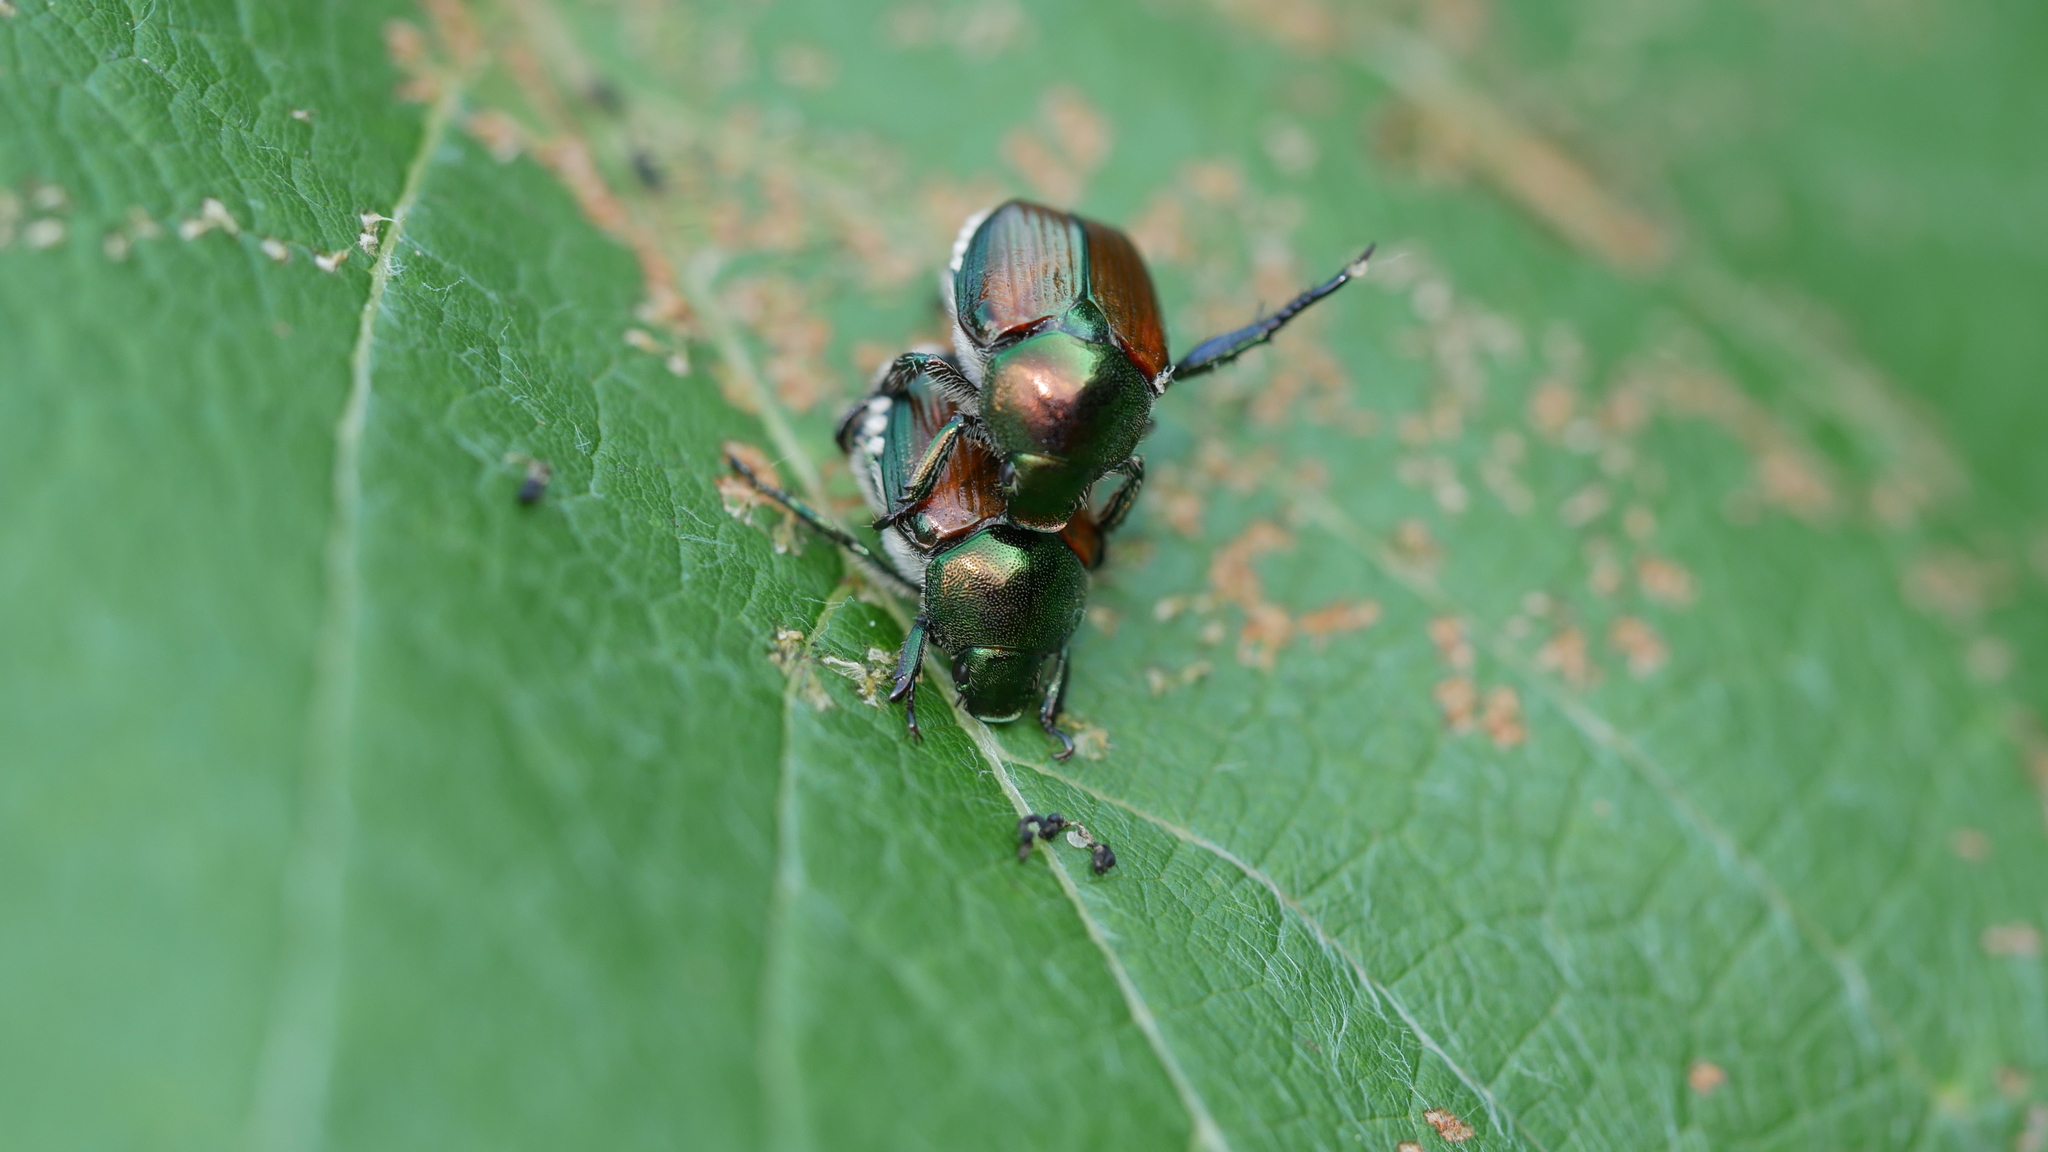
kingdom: Animalia
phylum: Arthropoda
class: Insecta
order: Coleoptera
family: Scarabaeidae
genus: Popillia
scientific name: Popillia japonica
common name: Japanese beetle
